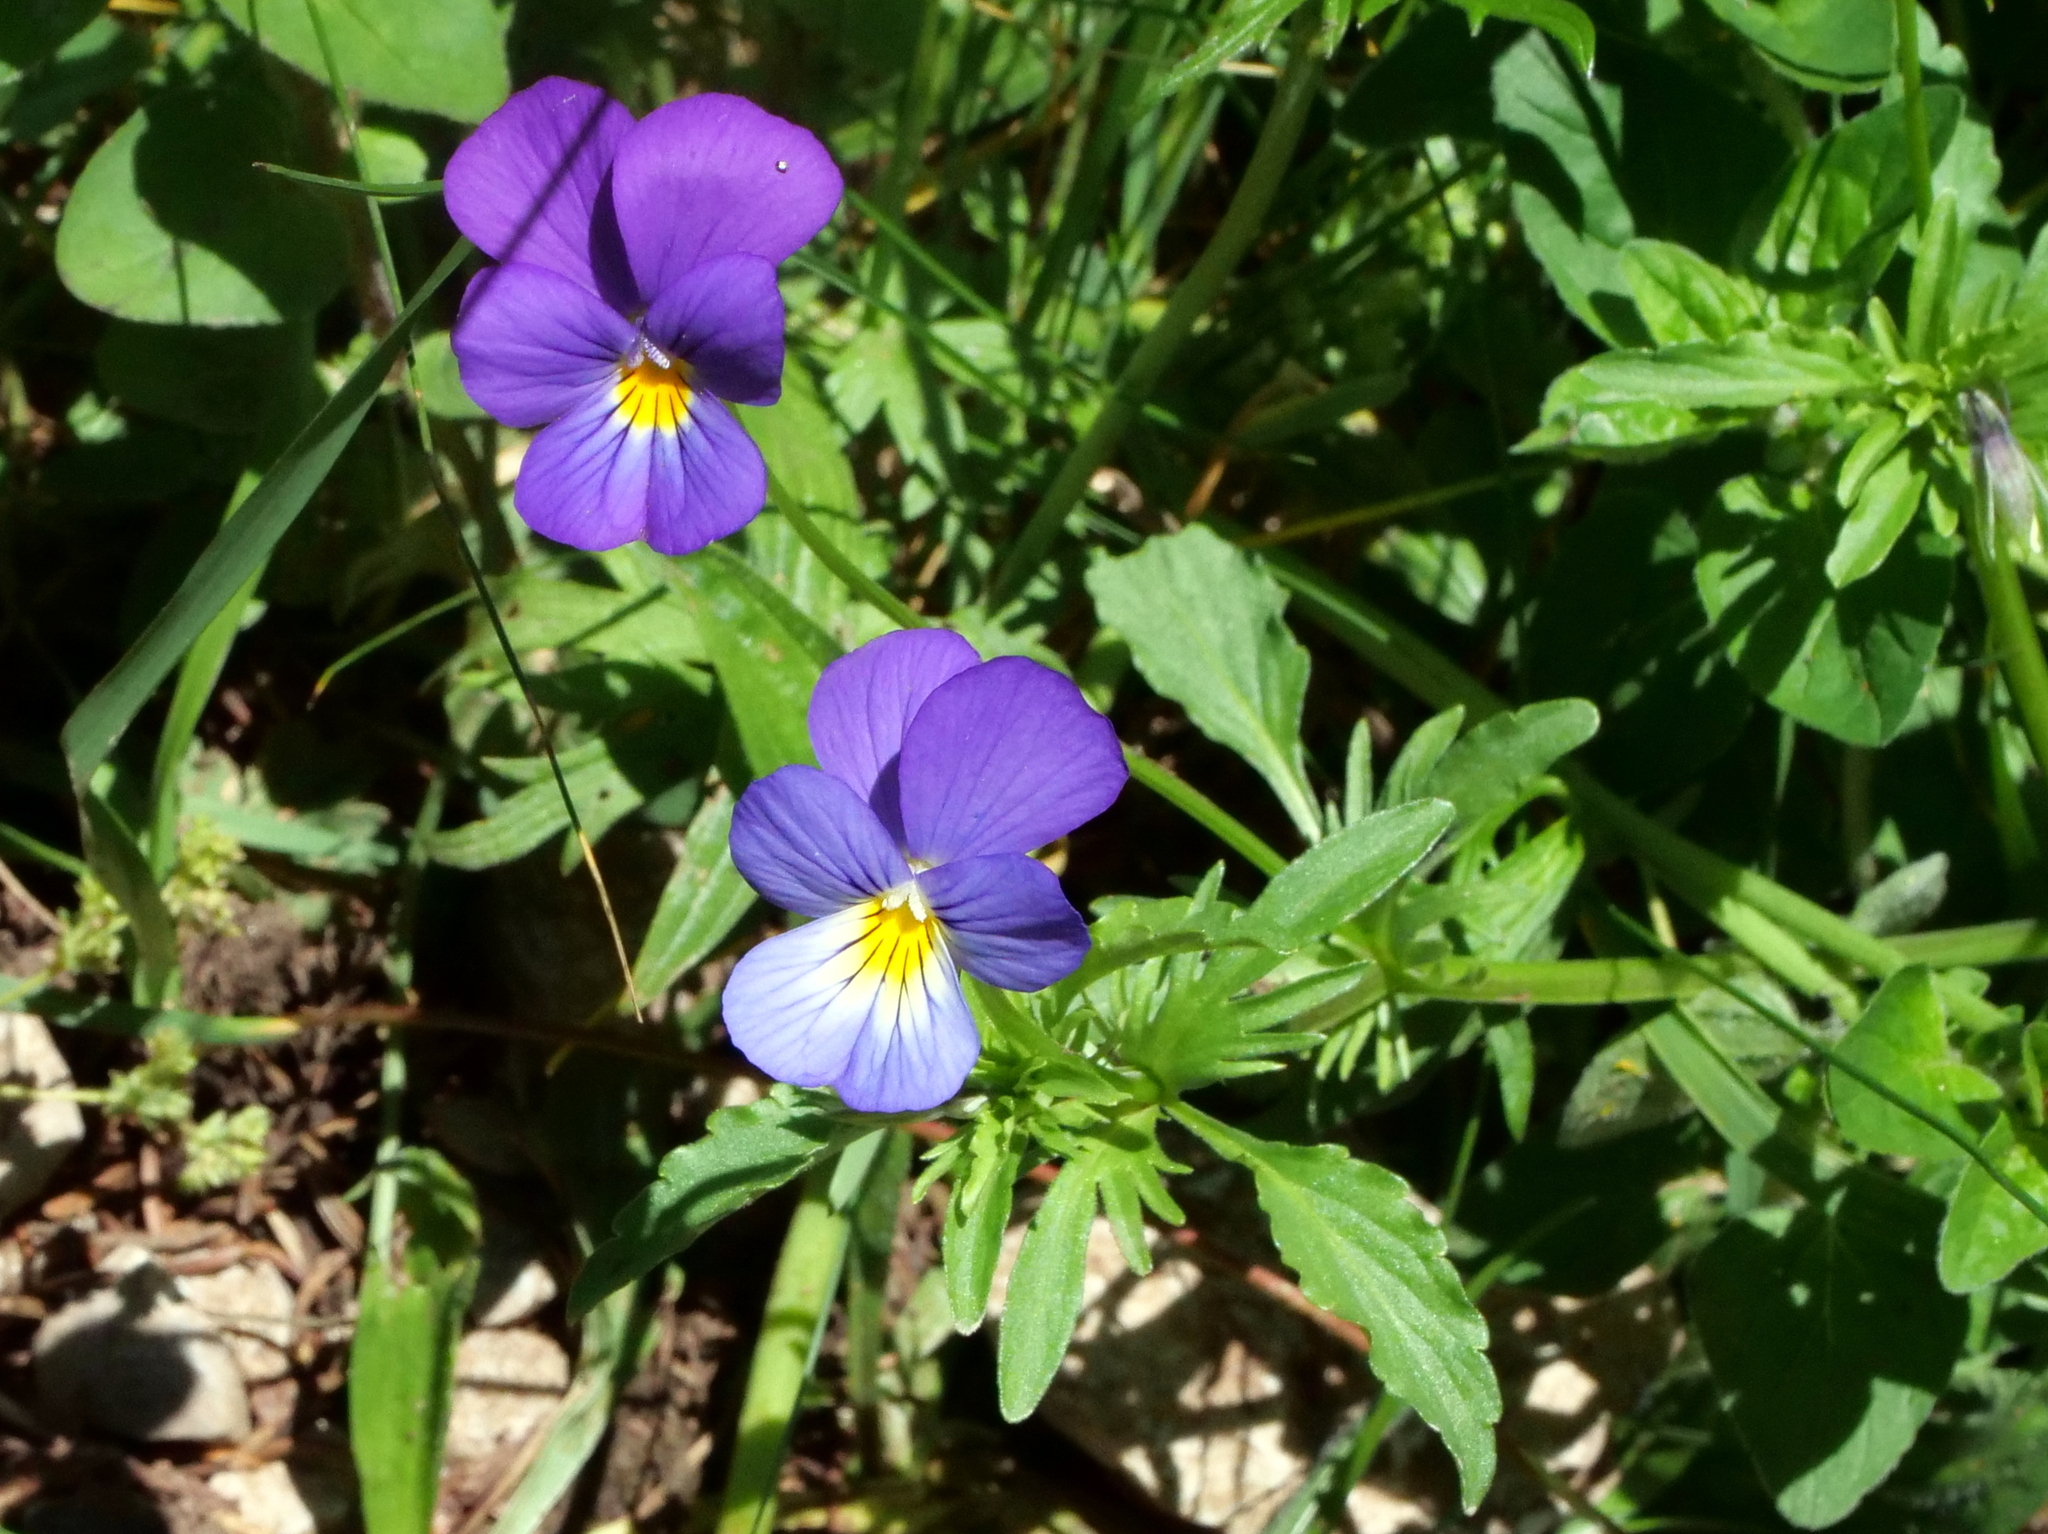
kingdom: Plantae
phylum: Tracheophyta
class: Magnoliopsida
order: Malpighiales
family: Violaceae
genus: Viola
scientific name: Viola tricolor
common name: Pansy
